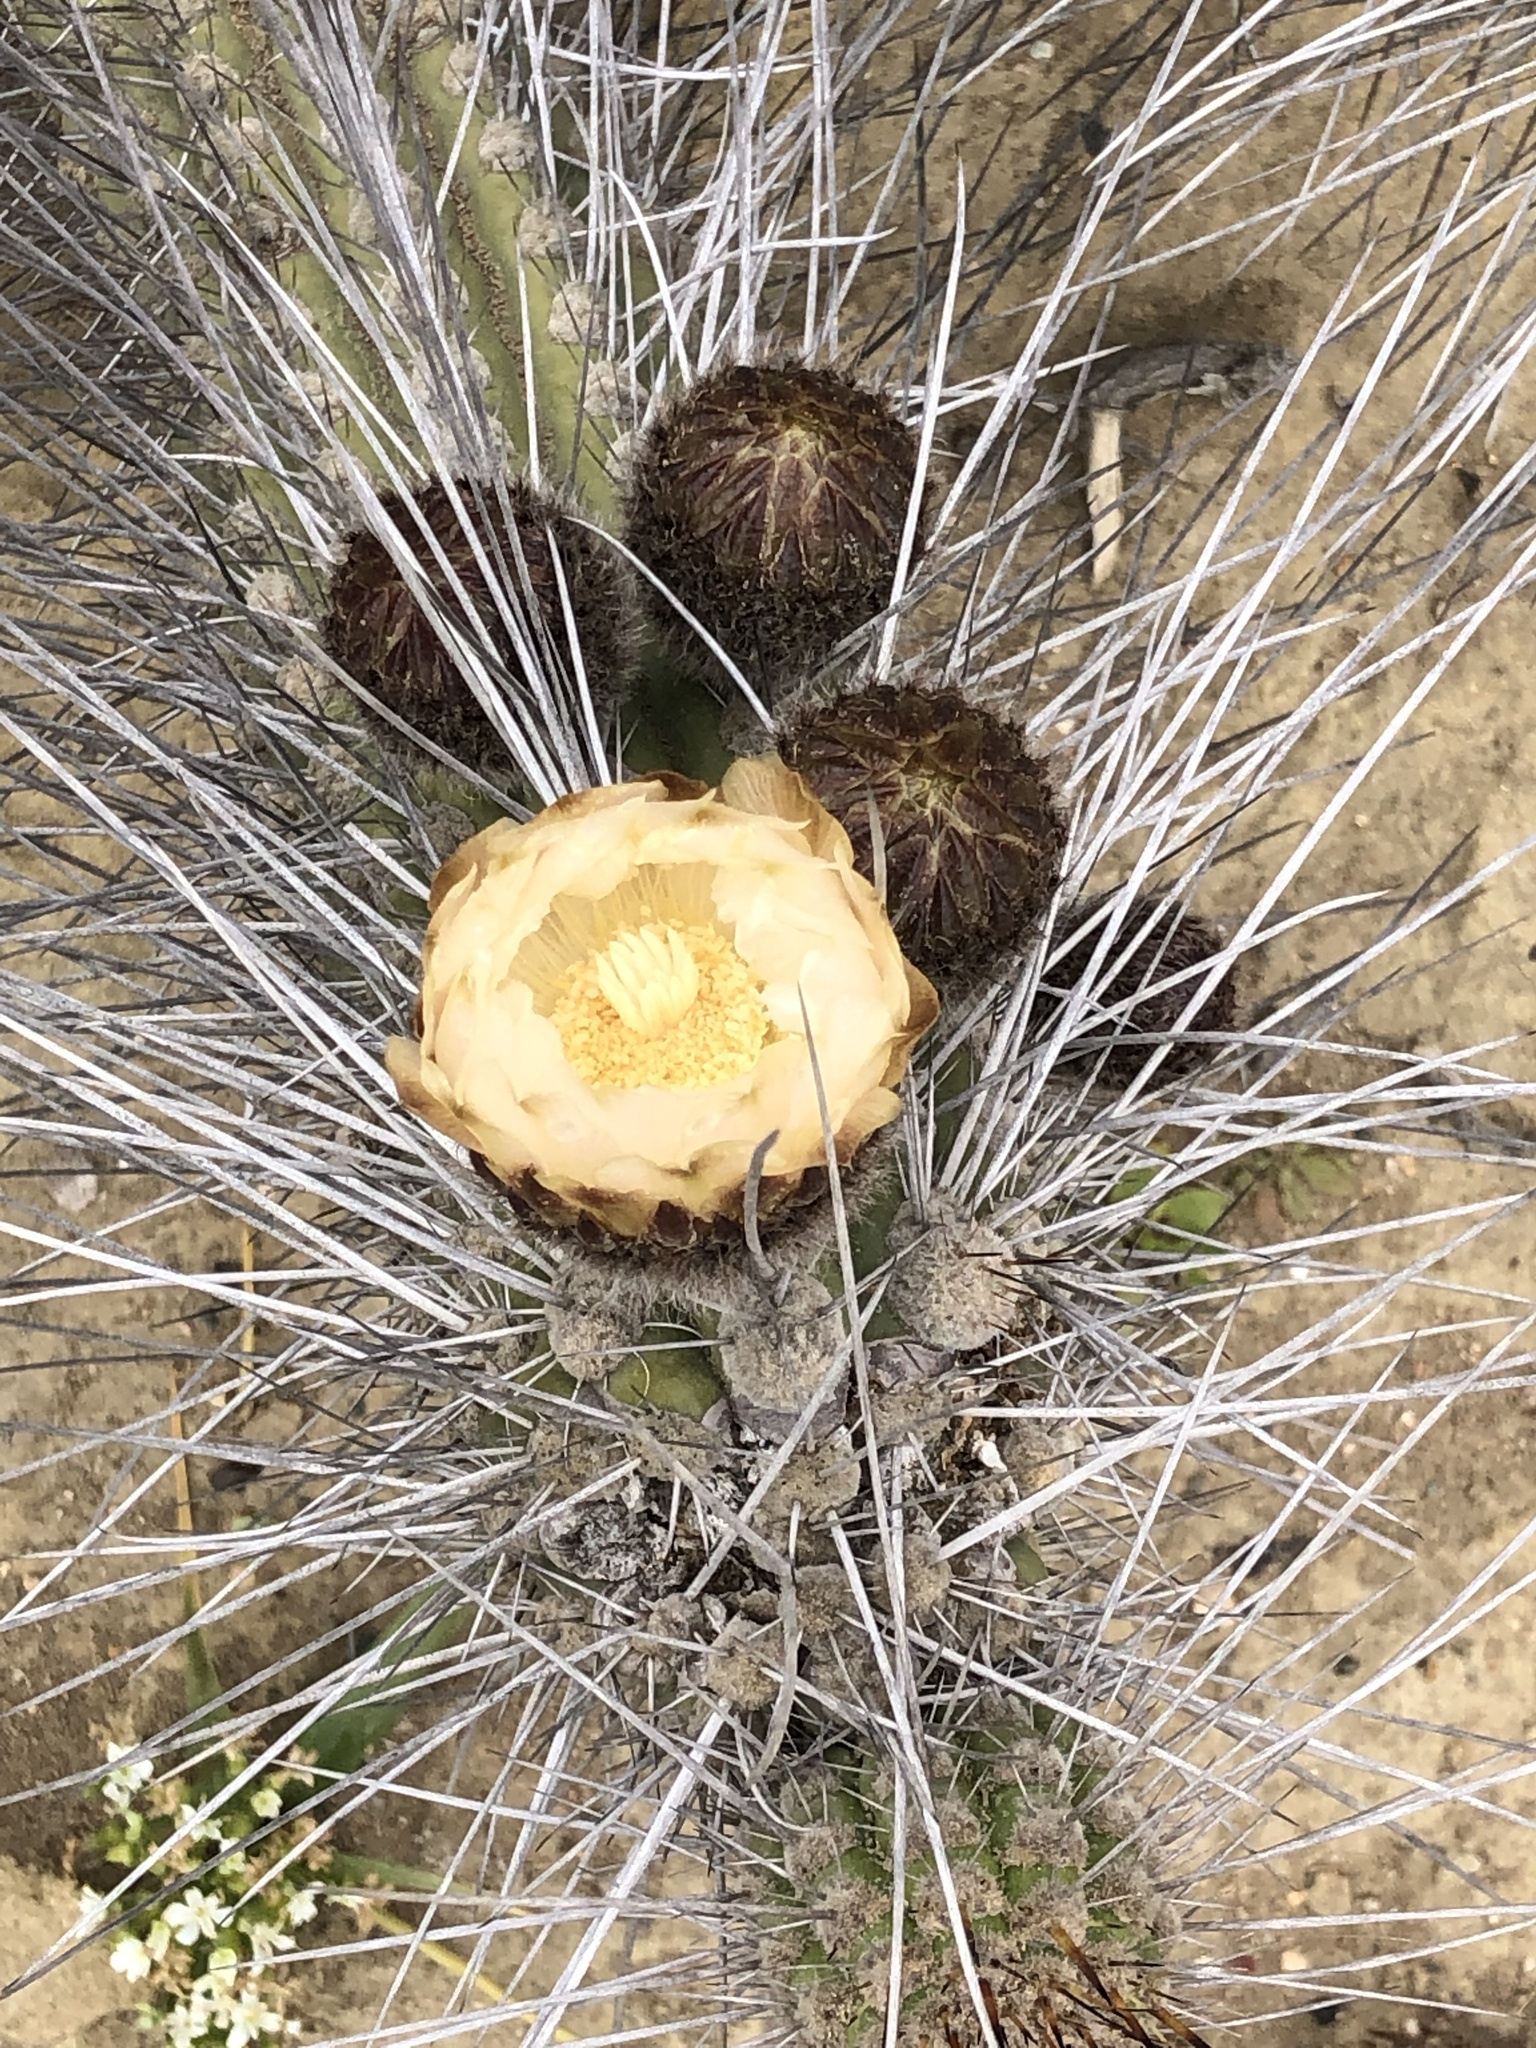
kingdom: Plantae
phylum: Tracheophyta
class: Magnoliopsida
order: Caryophyllales
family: Cactaceae
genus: Eulychnia
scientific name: Eulychnia chorosensis
